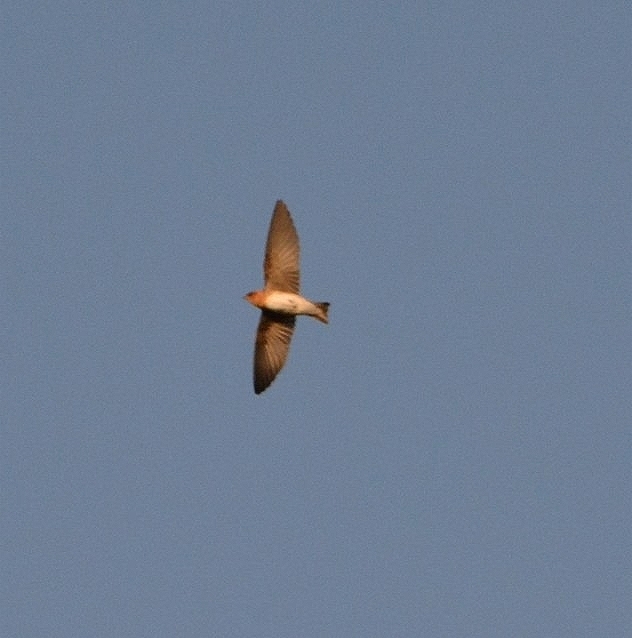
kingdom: Animalia
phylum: Chordata
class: Aves
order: Passeriformes
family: Hirundinidae
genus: Alopochelidon
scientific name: Alopochelidon fucata
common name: Tawny-headed swallow
